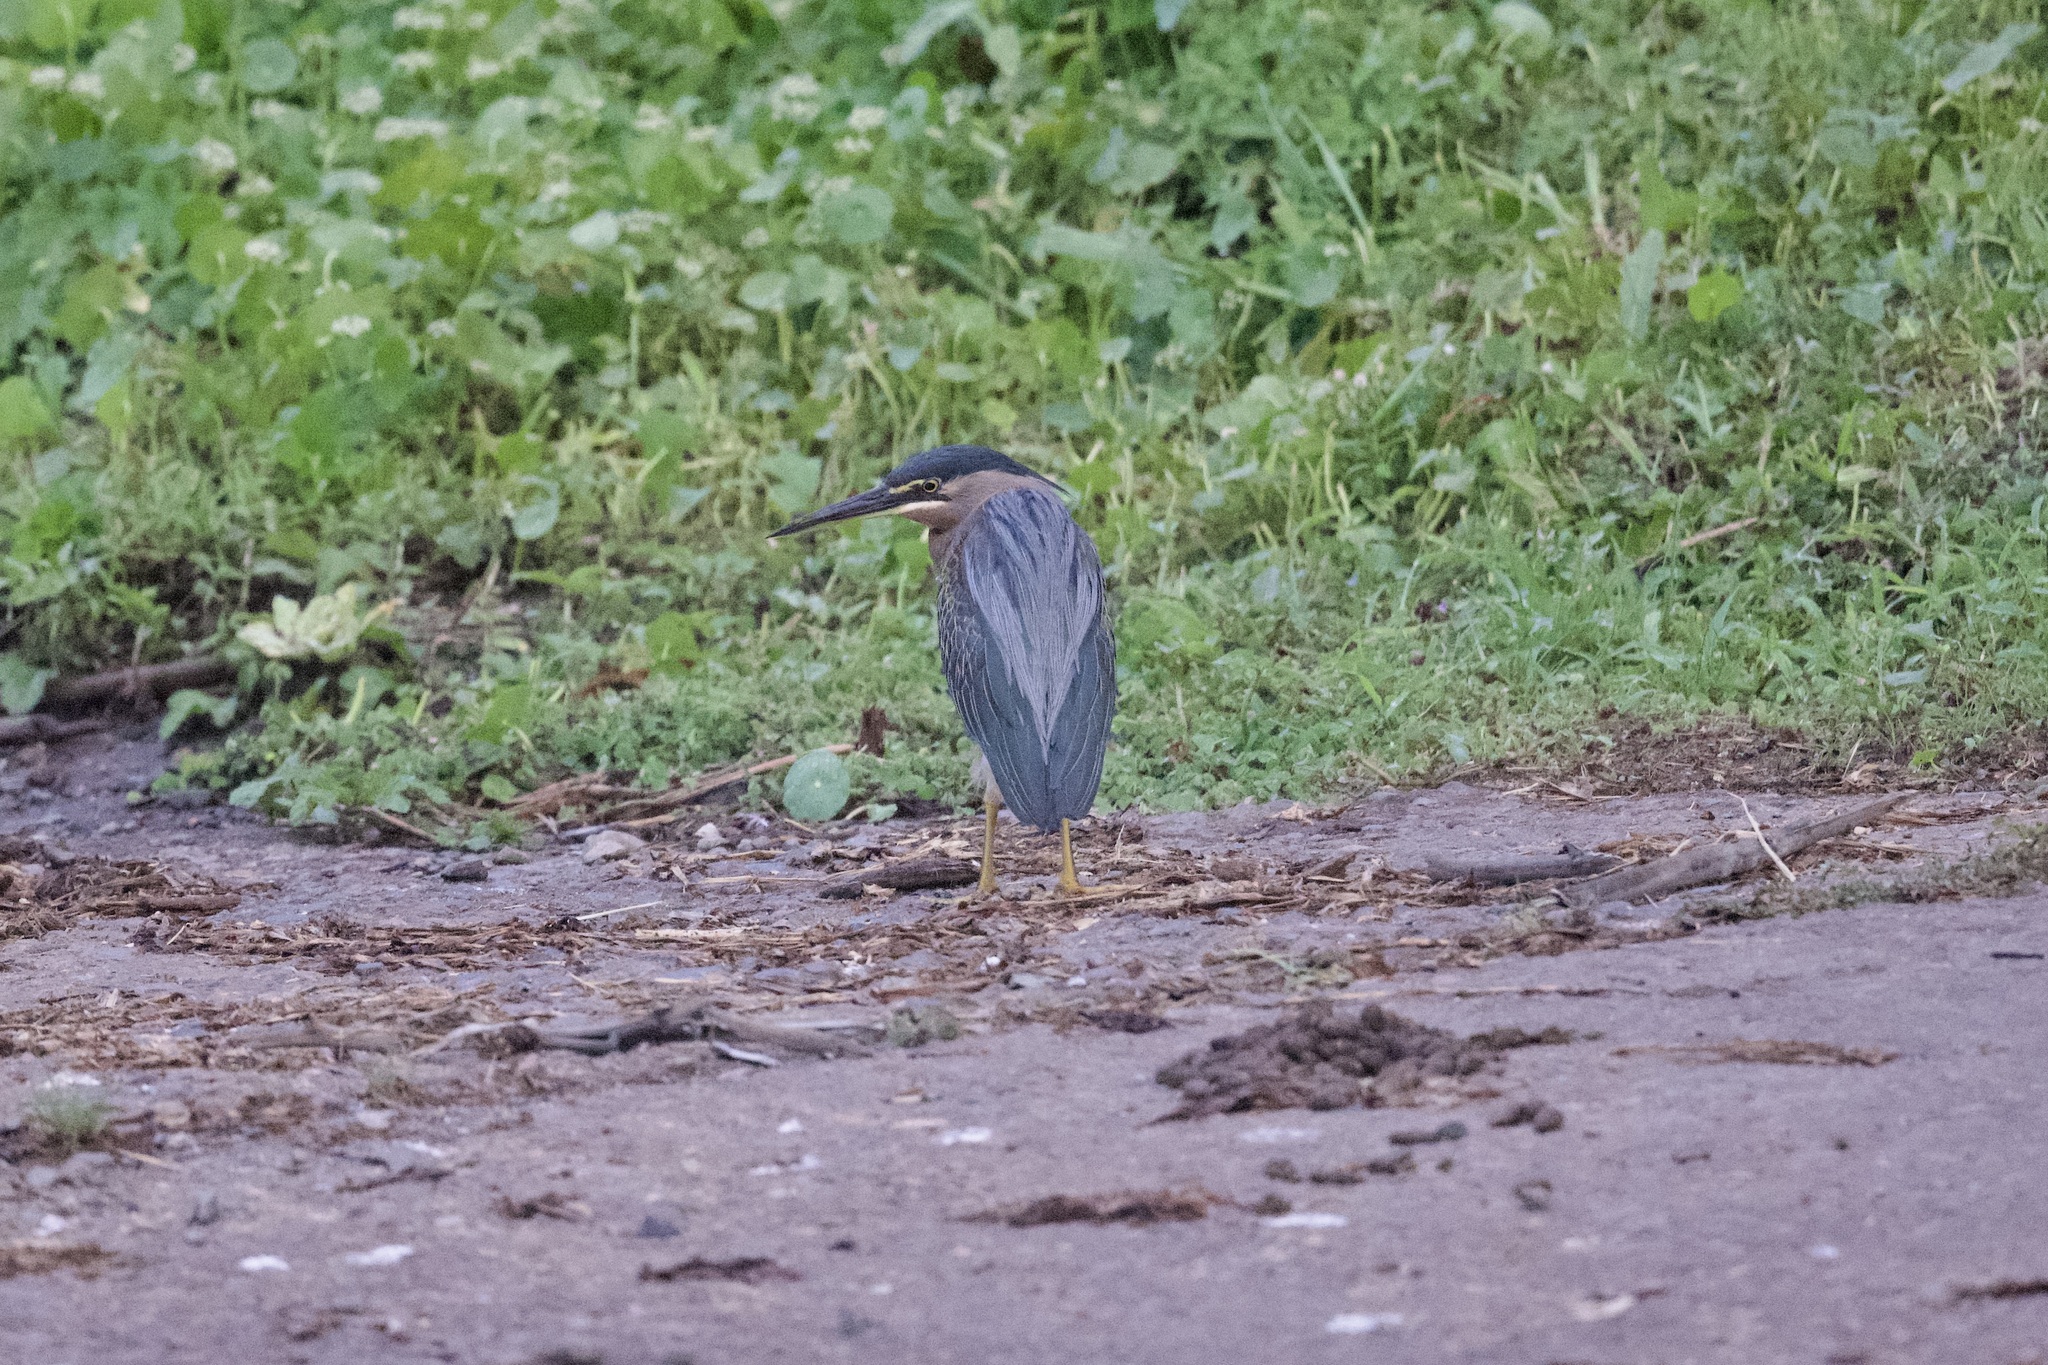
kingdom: Animalia
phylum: Chordata
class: Aves
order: Pelecaniformes
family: Ardeidae
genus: Butorides
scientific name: Butorides striata
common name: Striated heron
